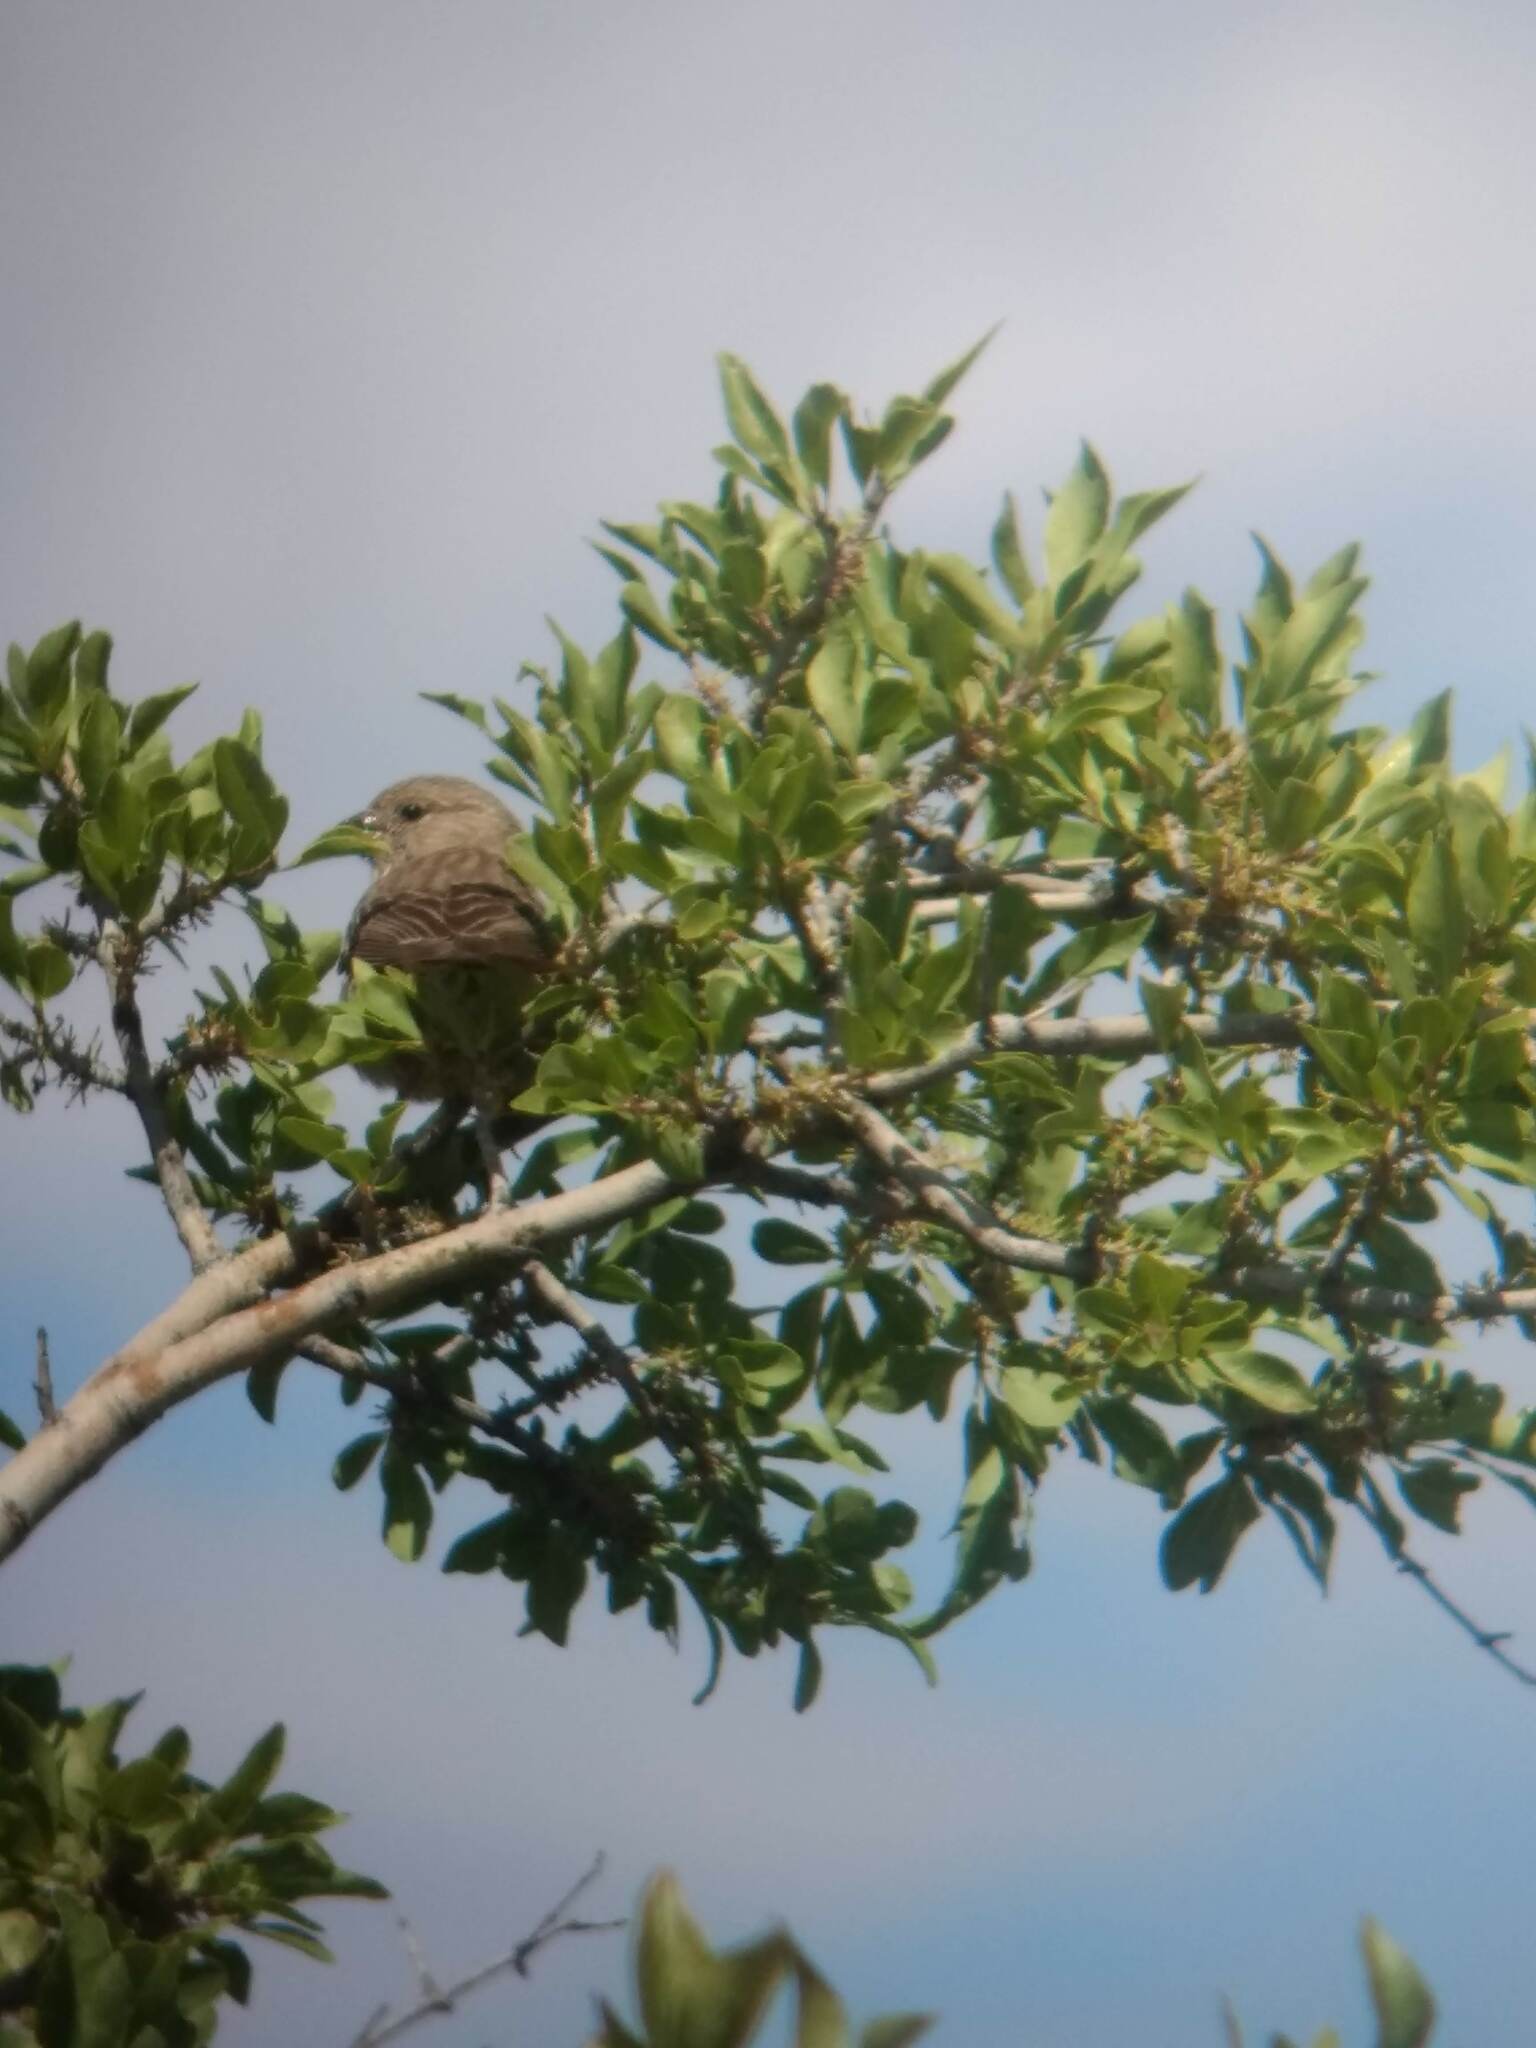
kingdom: Animalia
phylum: Chordata
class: Aves
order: Passeriformes
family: Fringillidae
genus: Haemorhous
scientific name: Haemorhous mexicanus
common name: House finch
